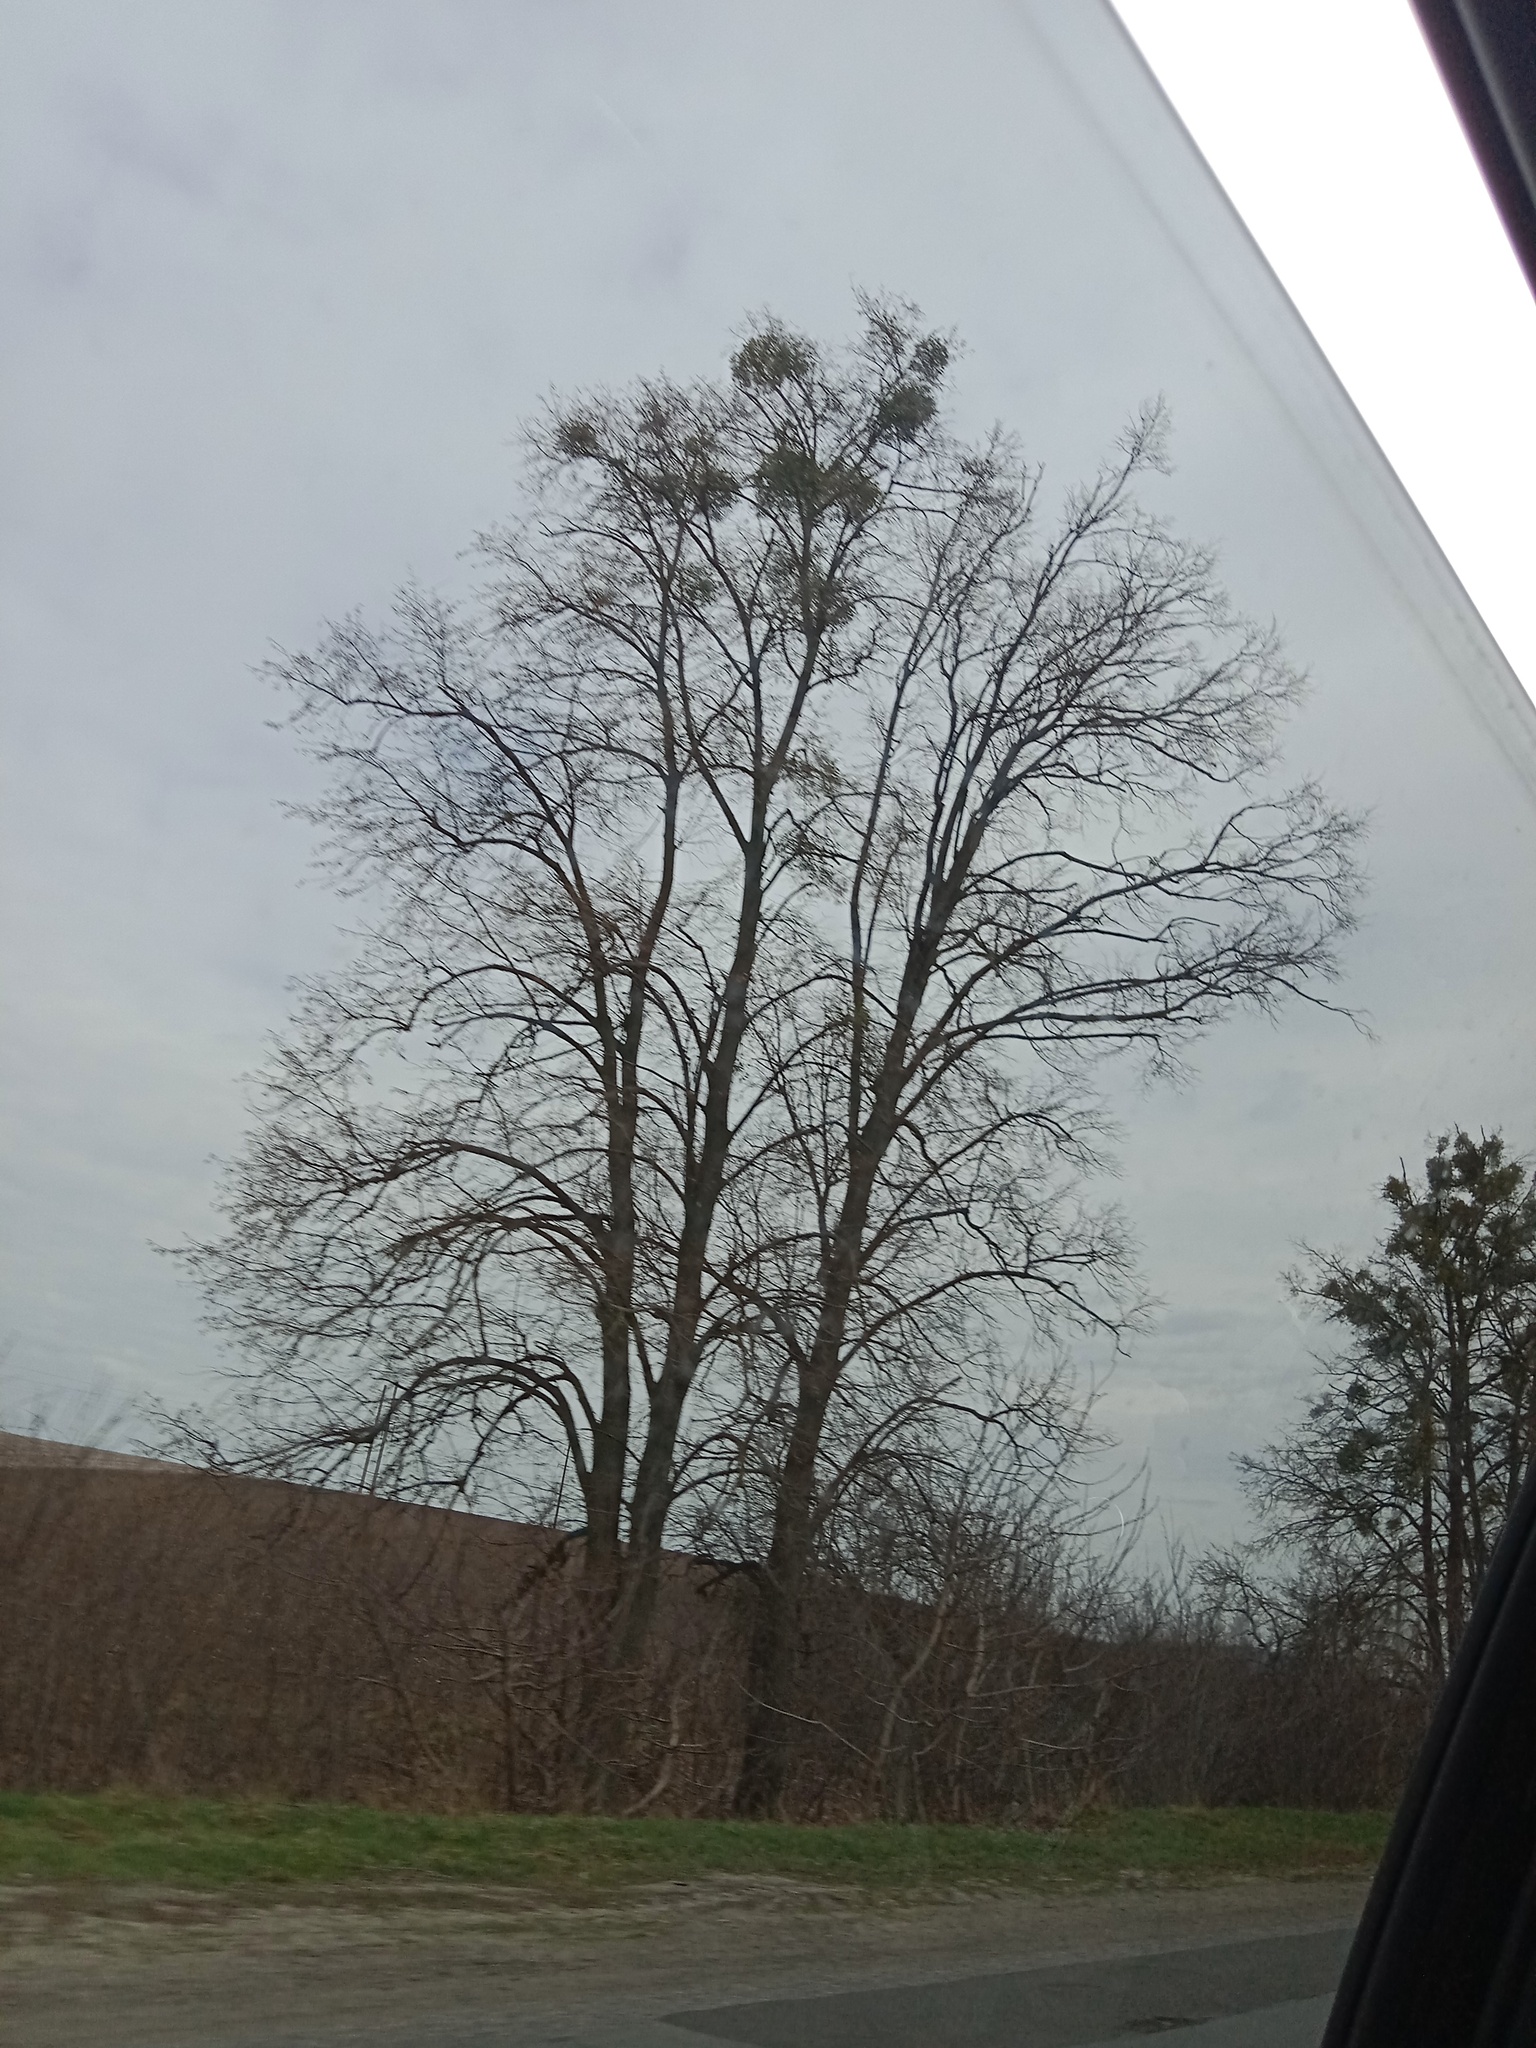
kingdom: Plantae
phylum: Tracheophyta
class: Magnoliopsida
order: Santalales
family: Viscaceae
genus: Viscum
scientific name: Viscum album
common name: Mistletoe
